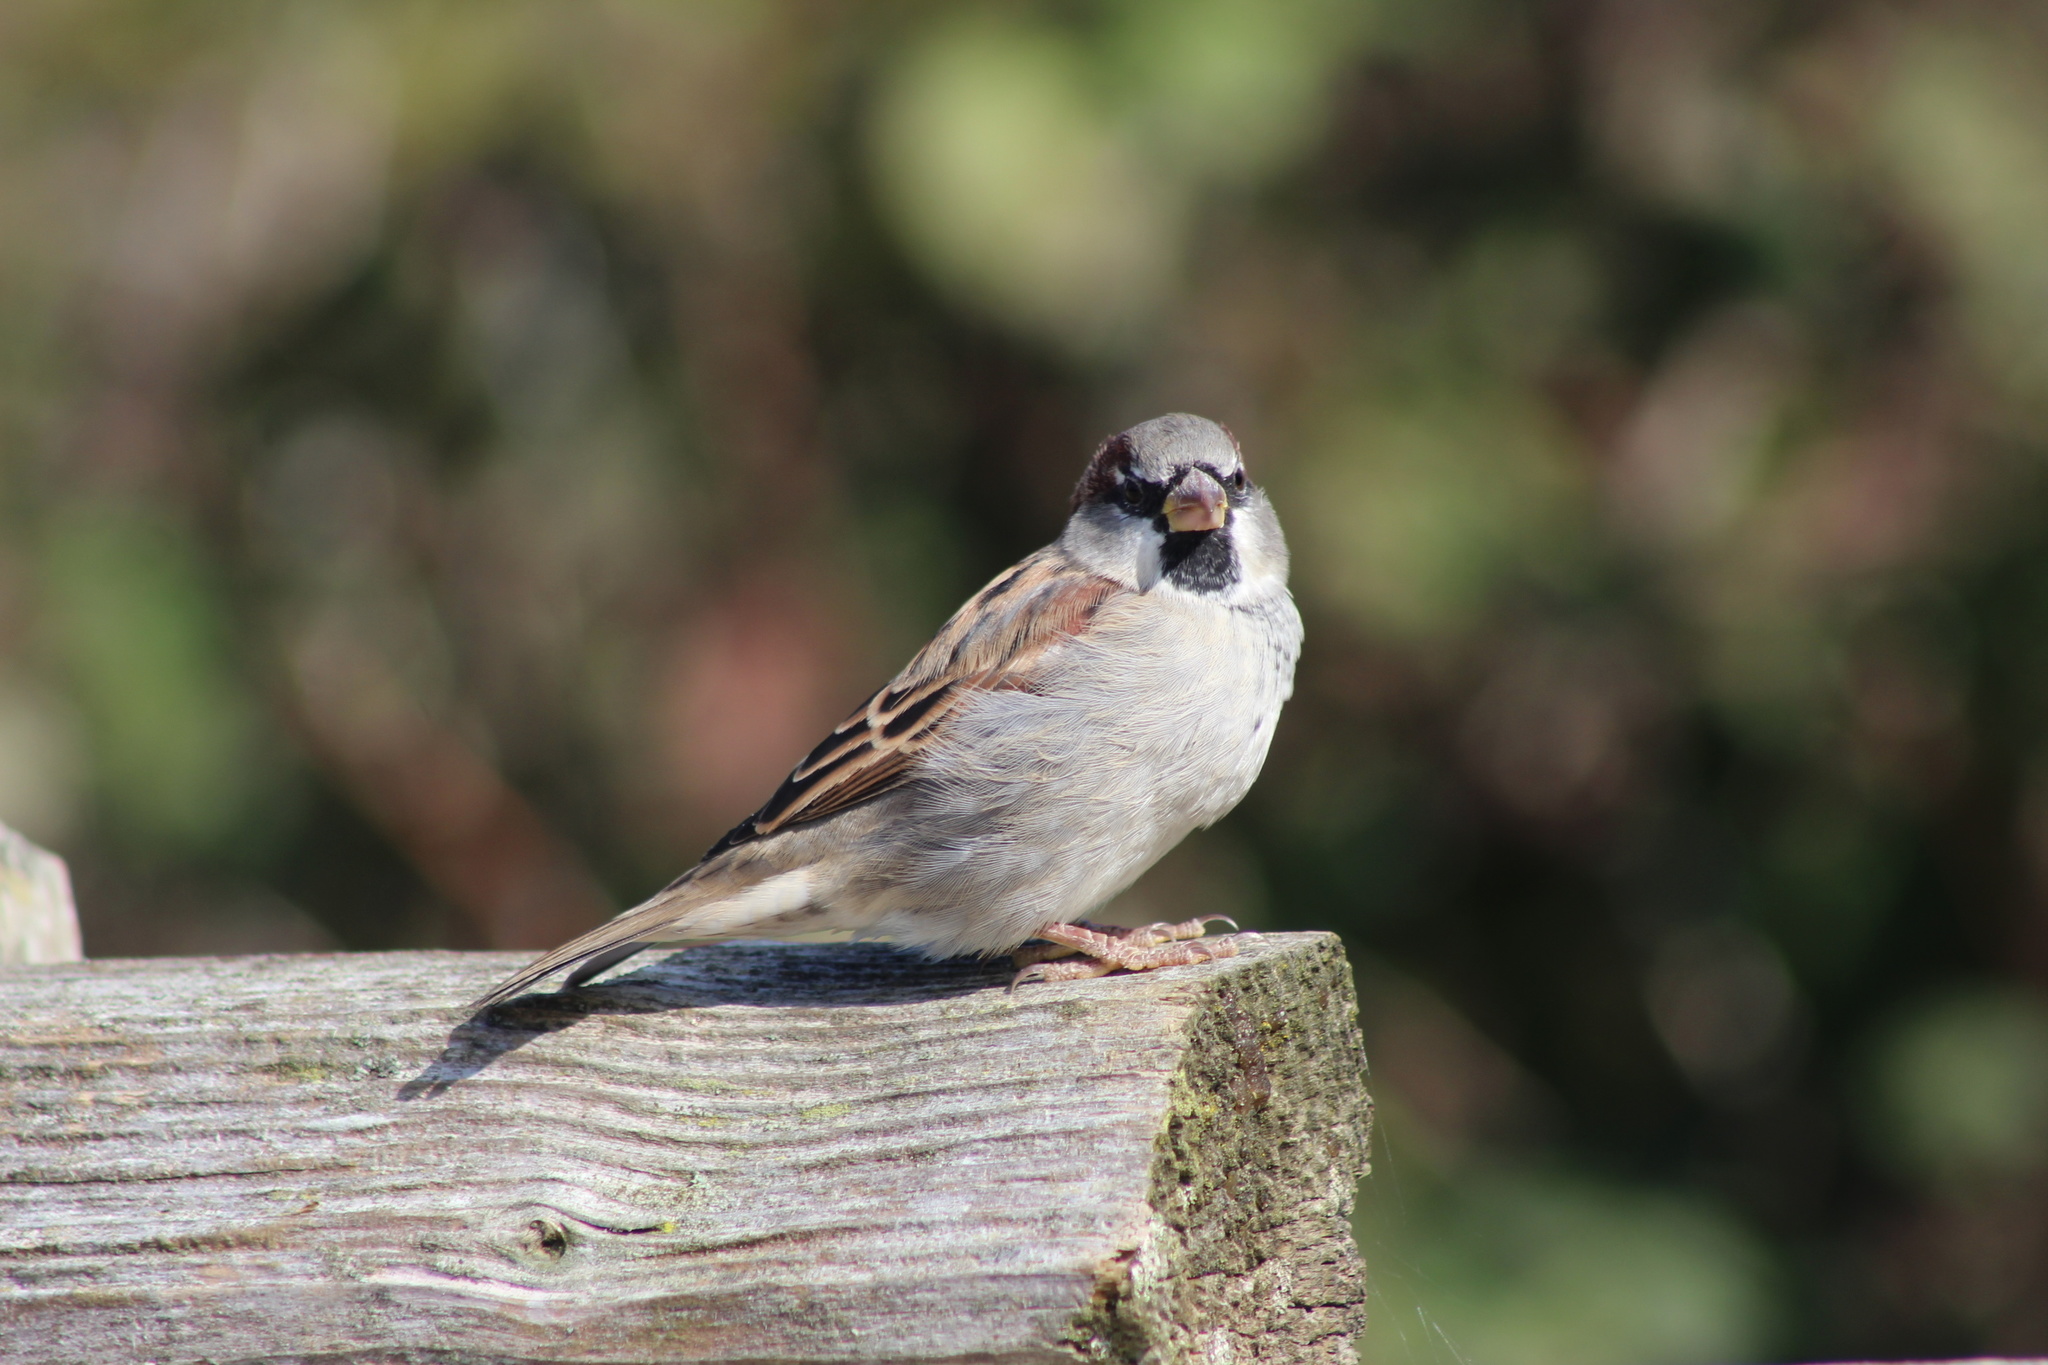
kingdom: Animalia
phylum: Chordata
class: Aves
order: Passeriformes
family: Passeridae
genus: Passer
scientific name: Passer domesticus
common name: House sparrow
